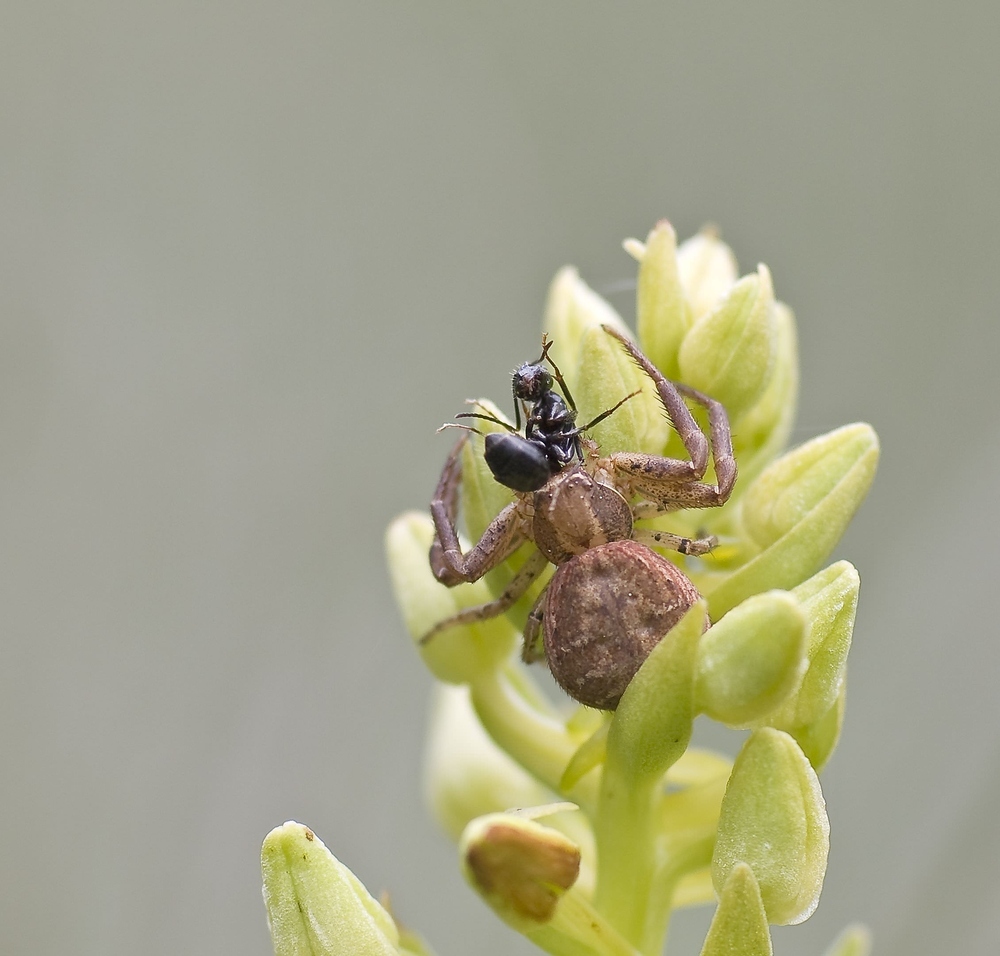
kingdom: Animalia
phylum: Arthropoda
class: Arachnida
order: Araneae
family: Thomisidae
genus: Xysticus
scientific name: Xysticus
